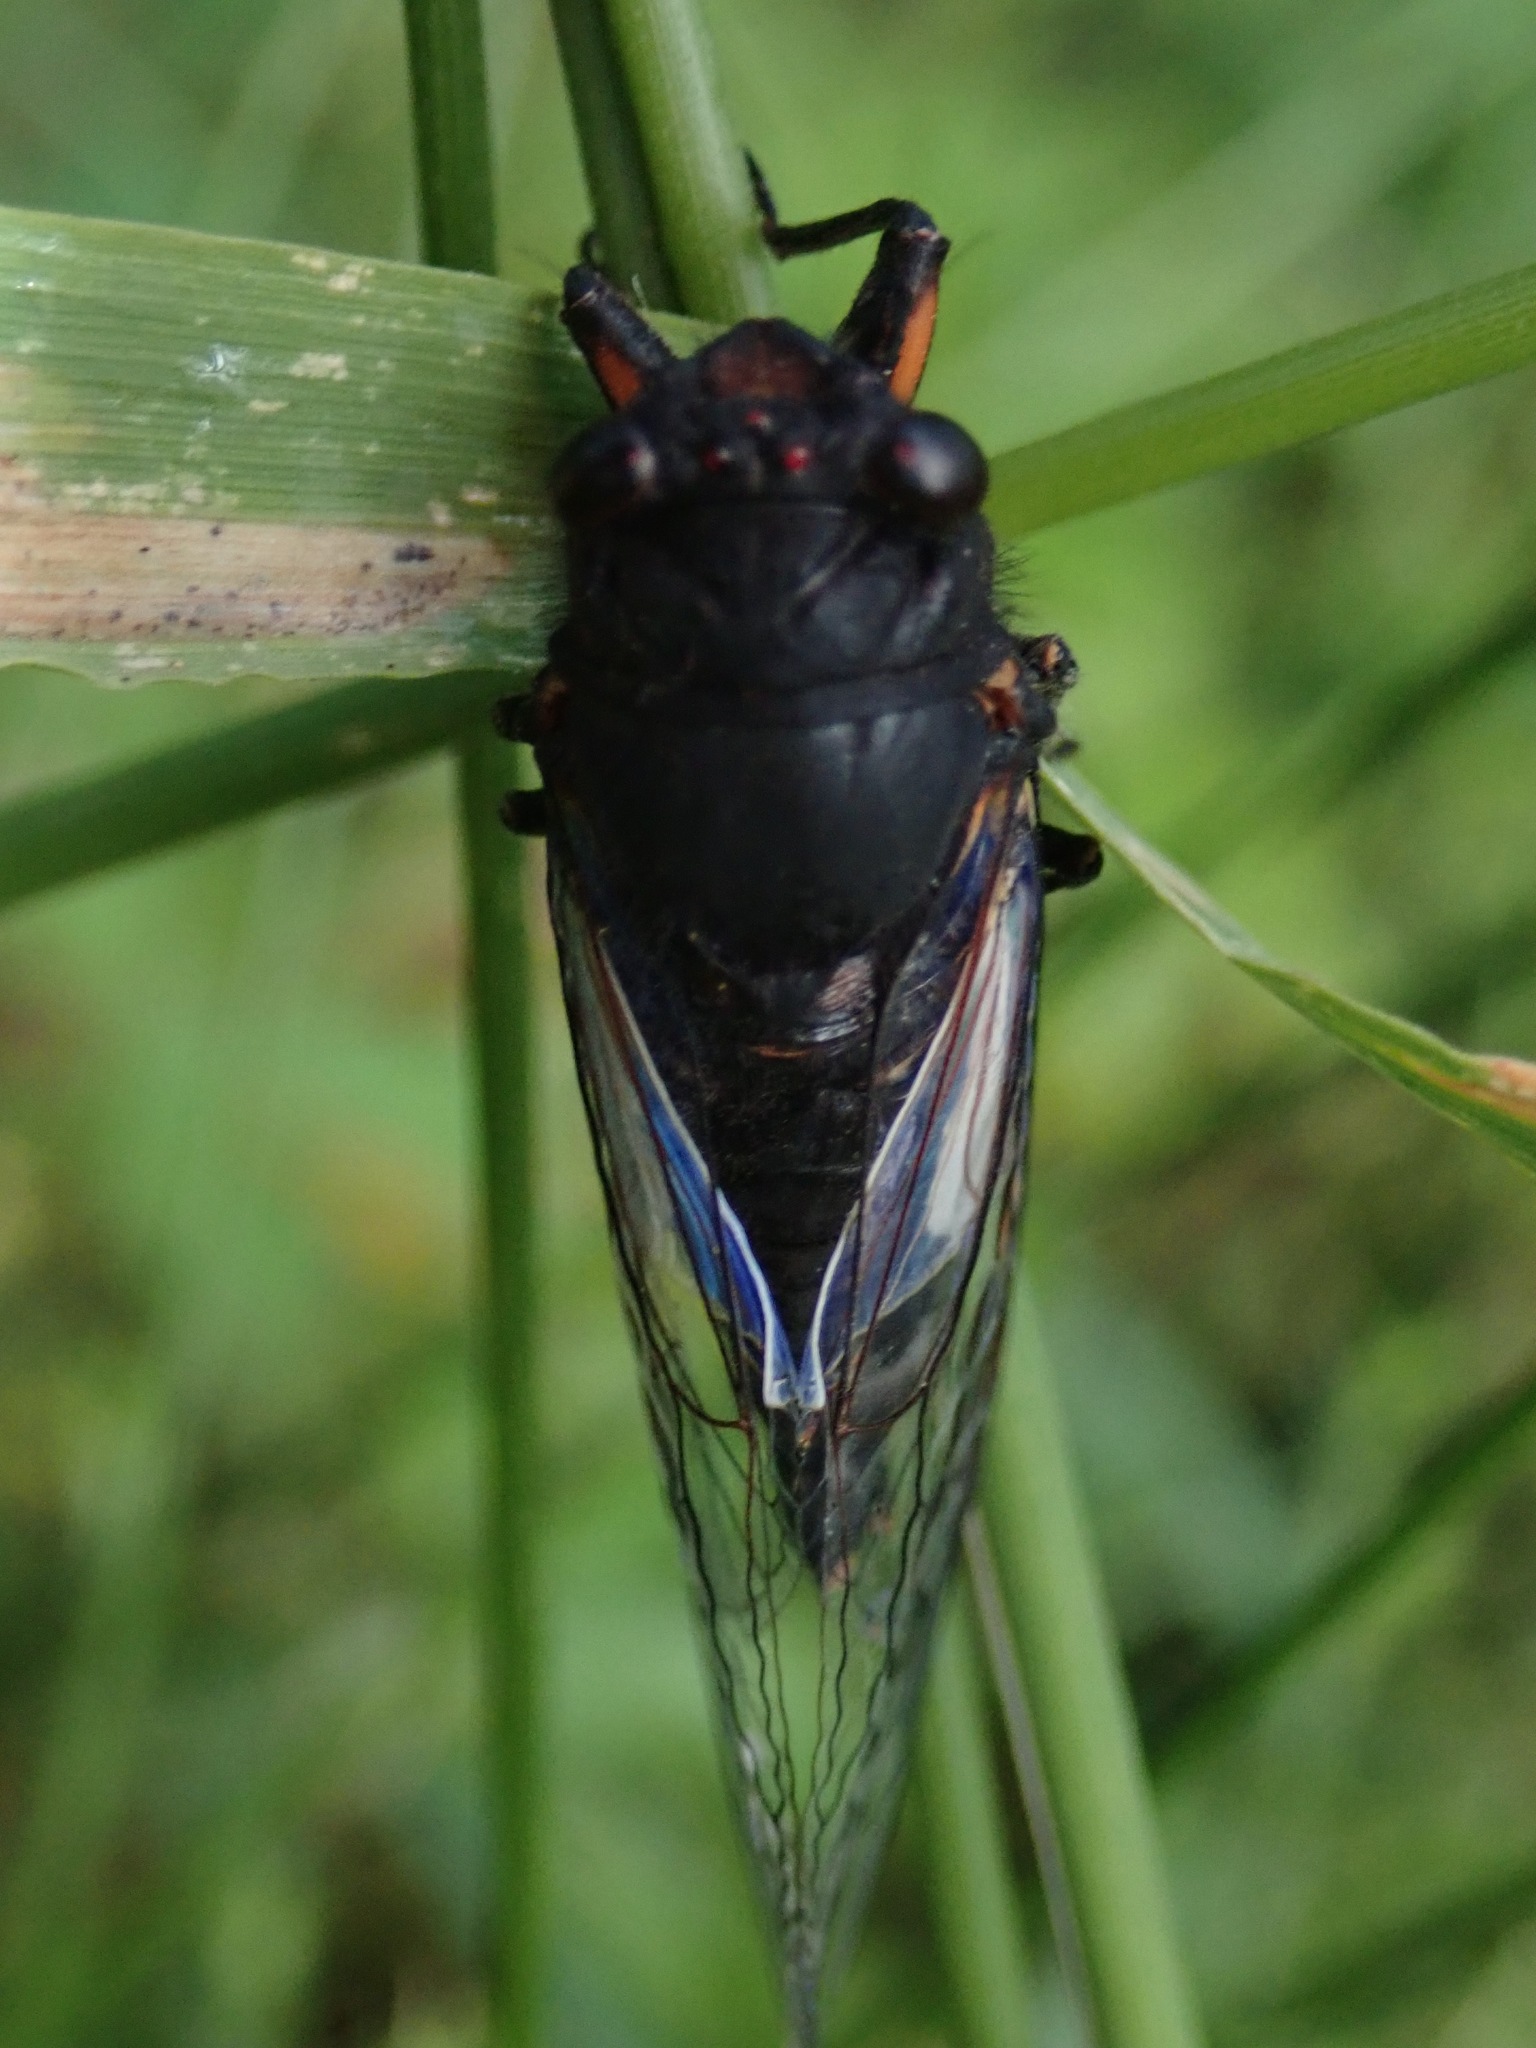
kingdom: Animalia
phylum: Arthropoda
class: Insecta
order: Hemiptera
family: Cicadidae
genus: Yoyetta
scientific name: Yoyetta timothyi
